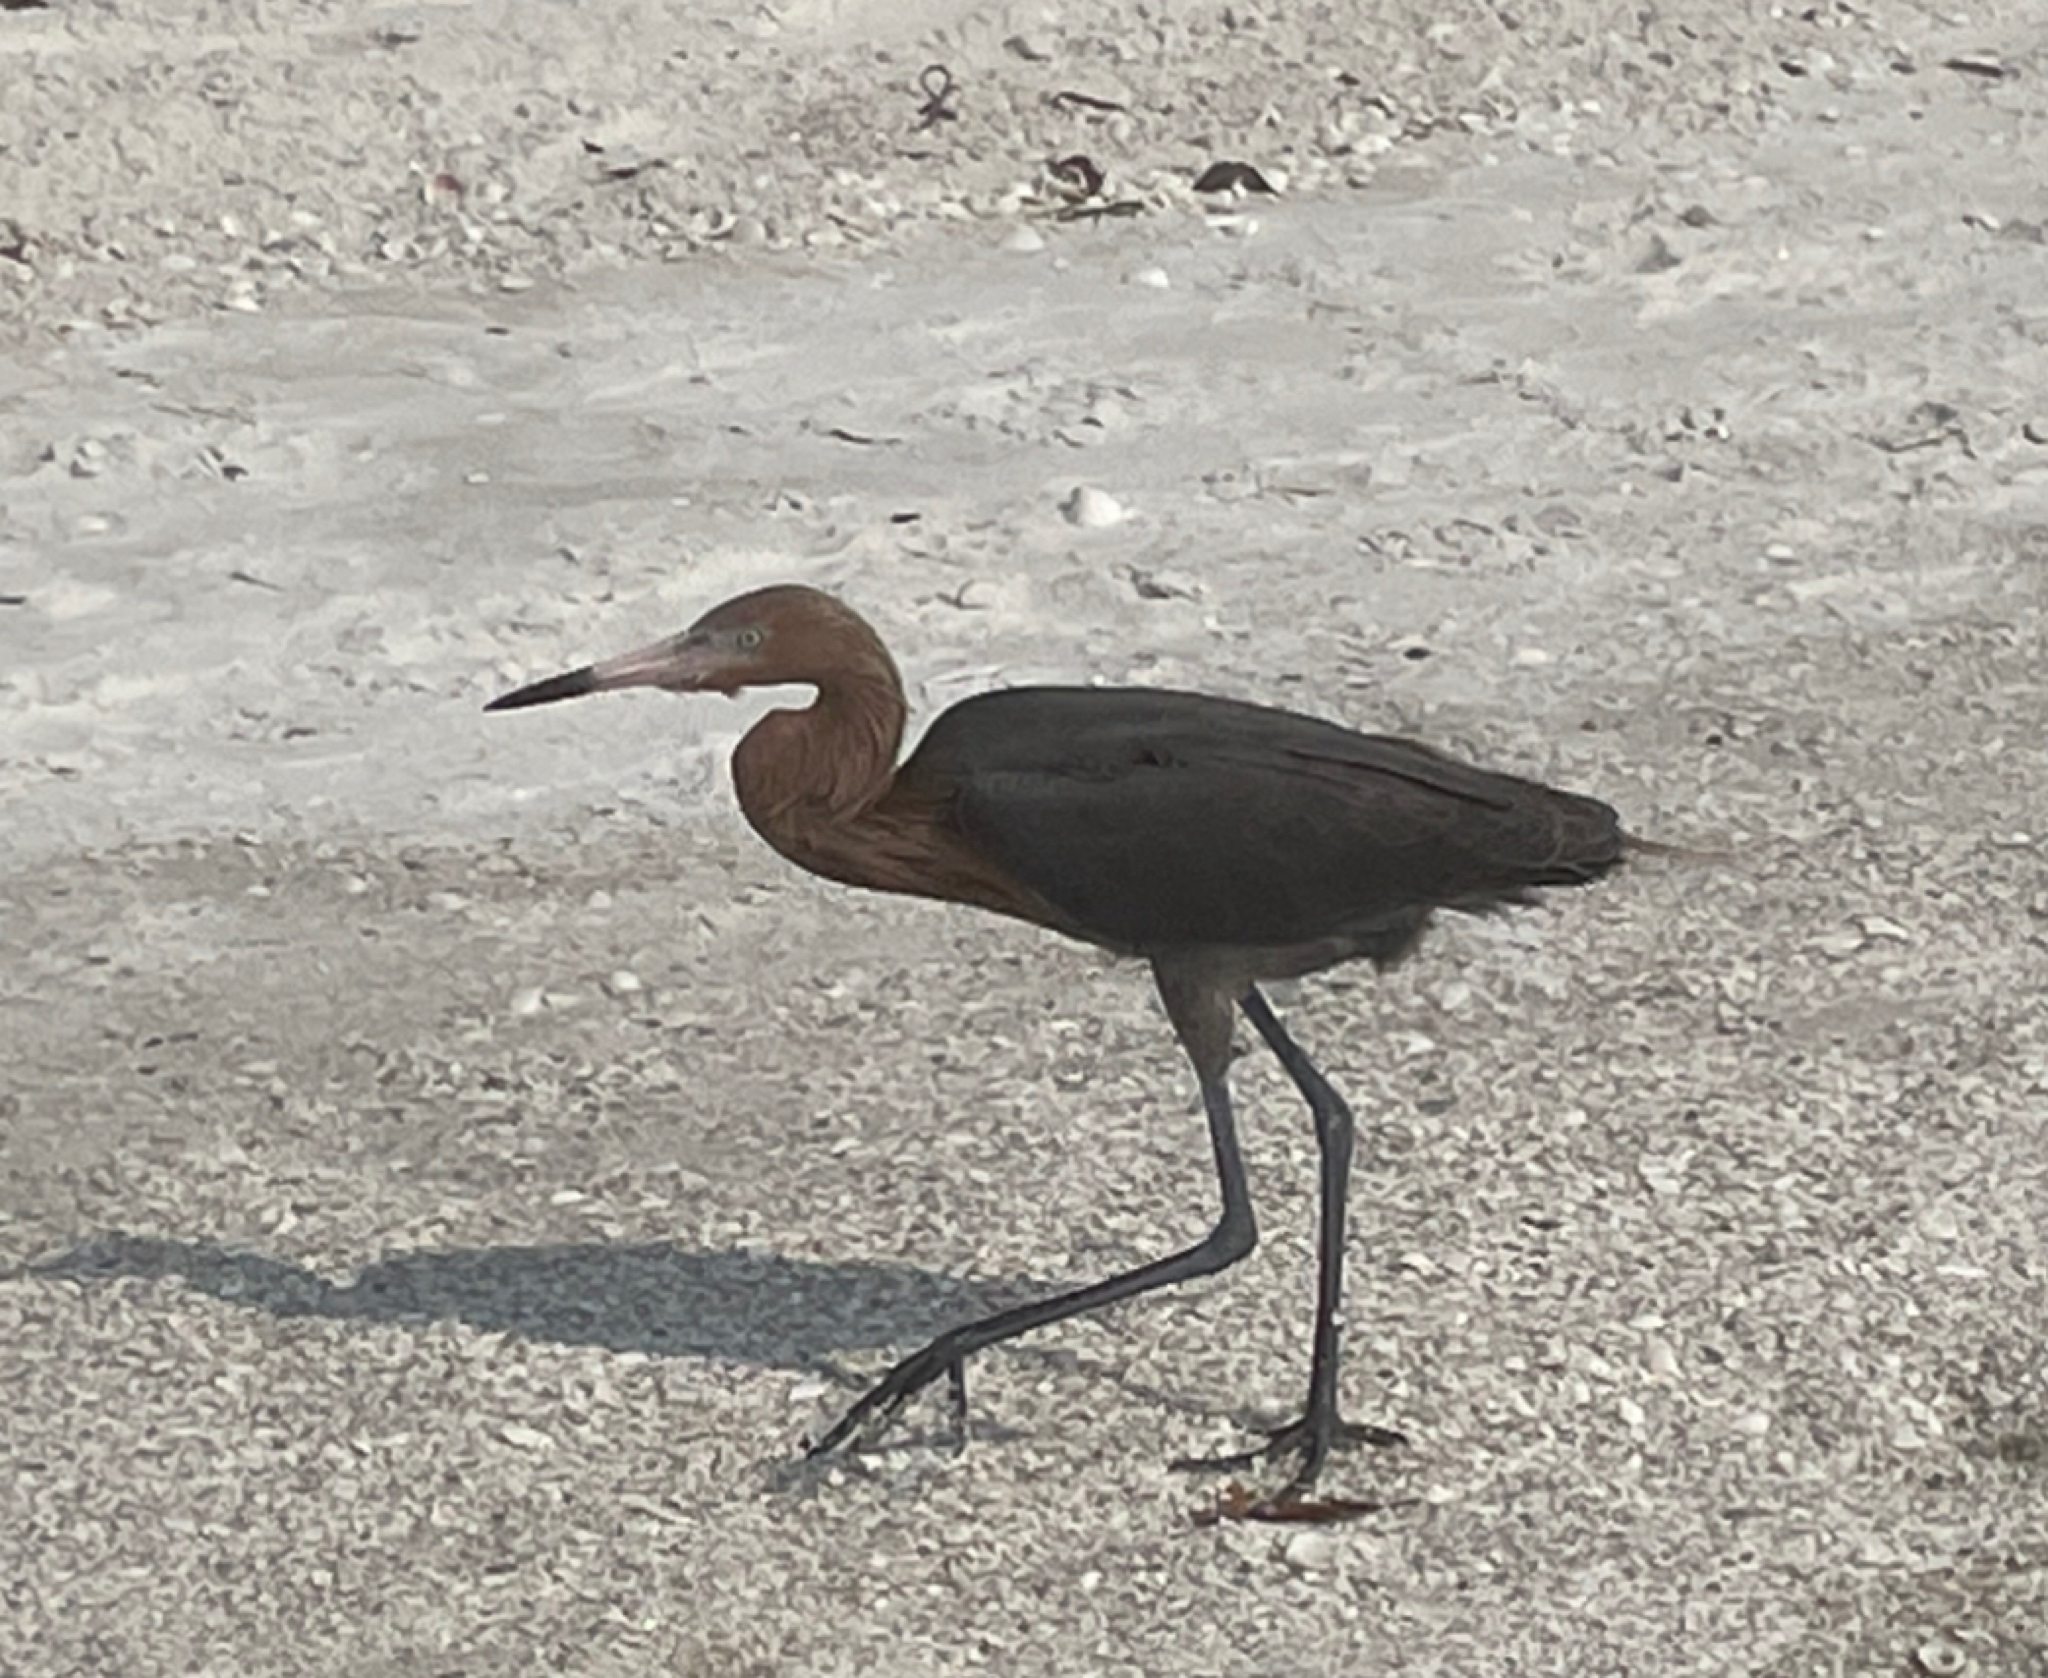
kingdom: Animalia
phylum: Chordata
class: Aves
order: Pelecaniformes
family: Ardeidae
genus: Egretta
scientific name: Egretta rufescens
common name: Reddish egret
